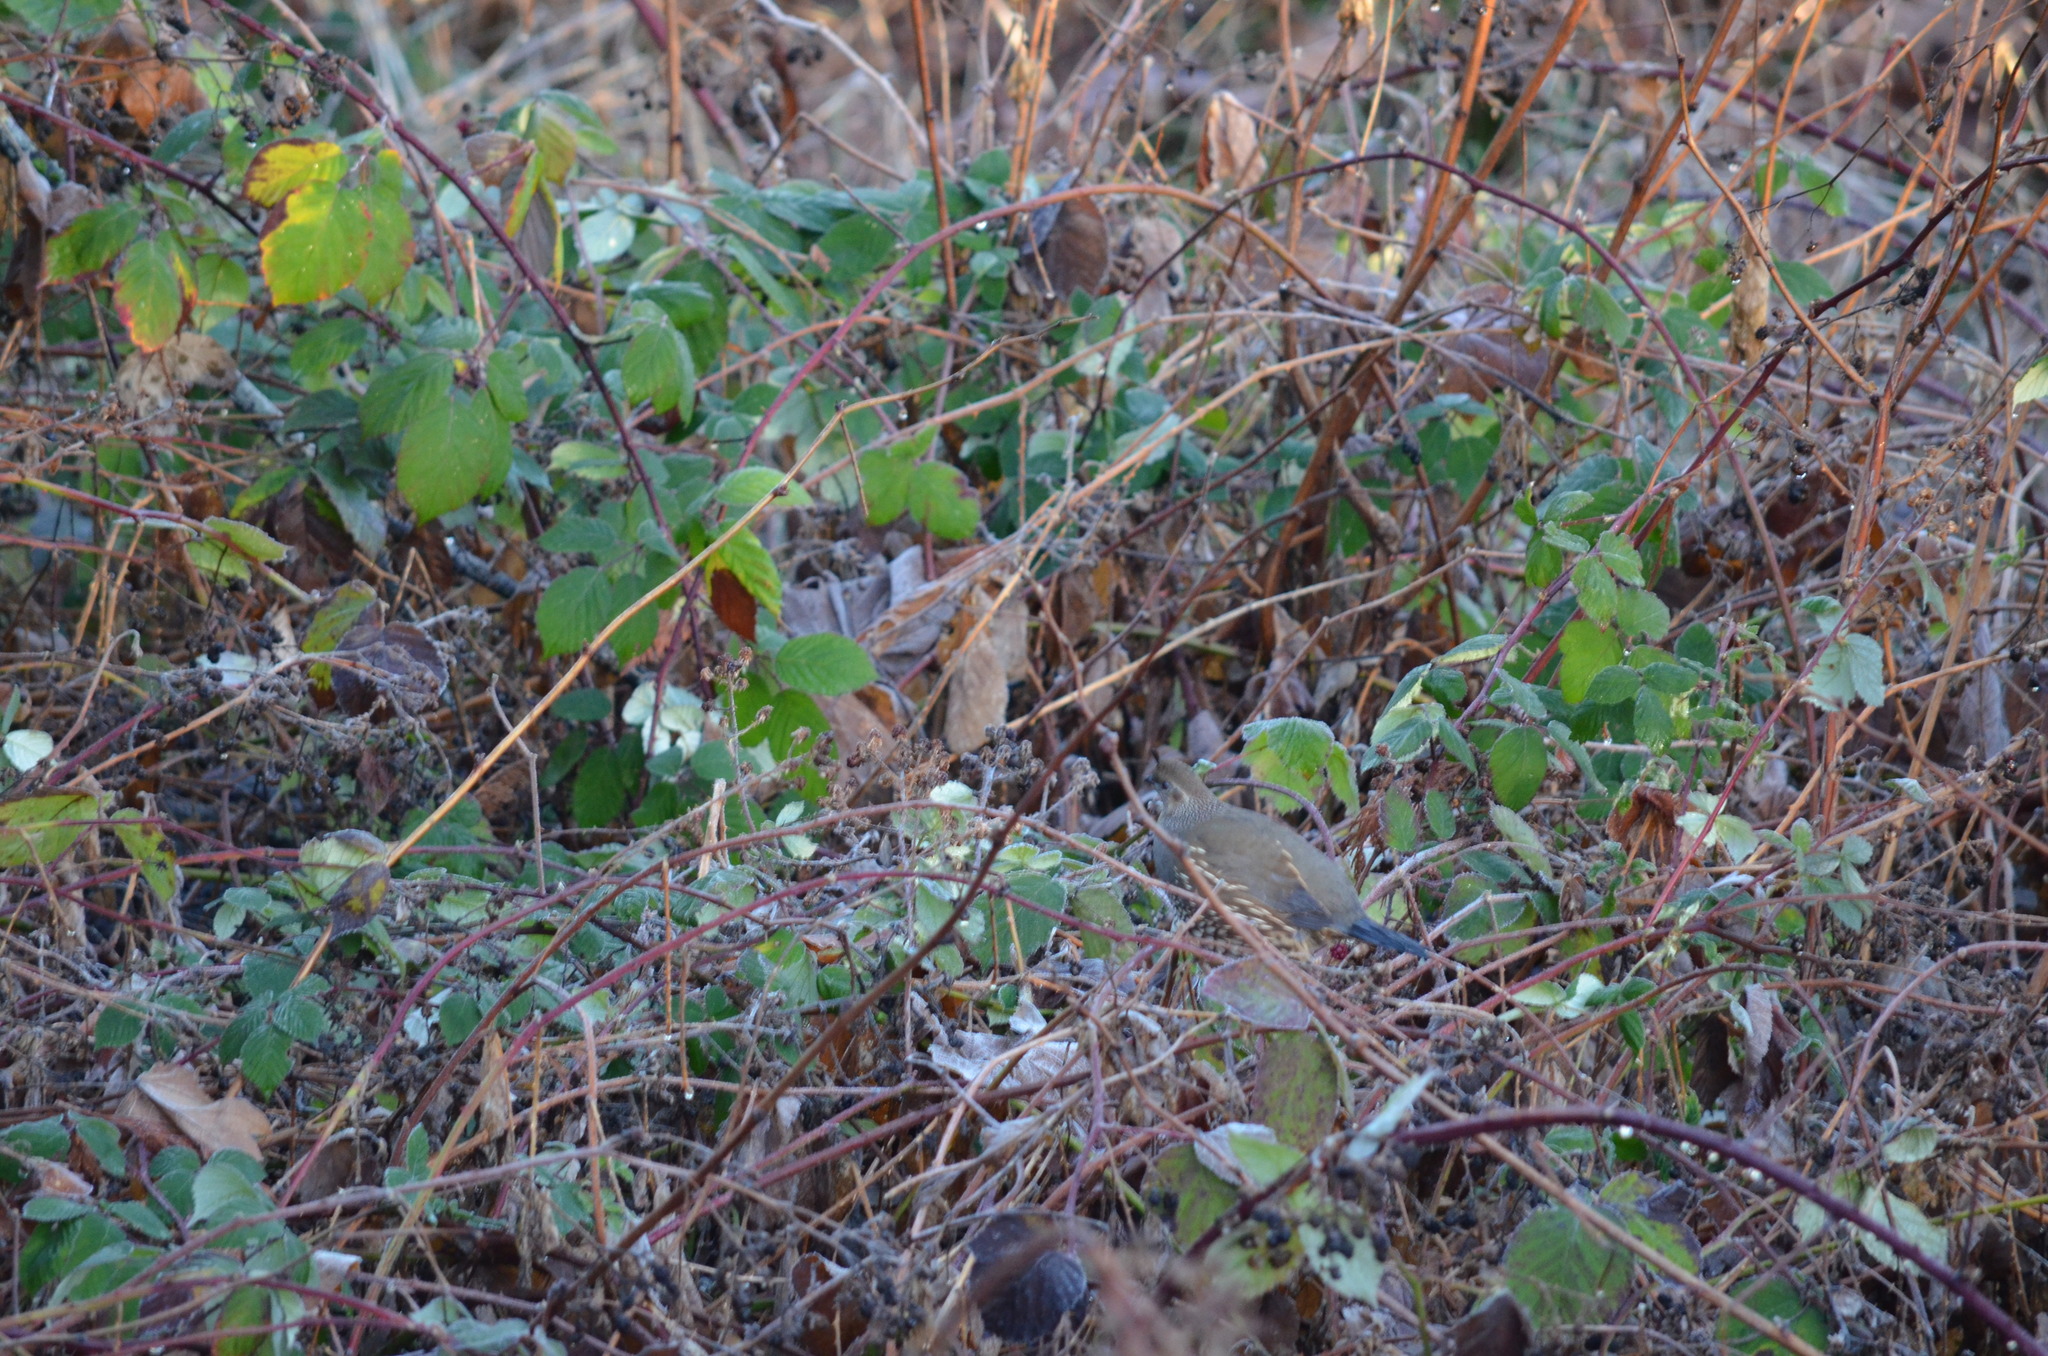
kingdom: Animalia
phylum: Chordata
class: Aves
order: Galliformes
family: Odontophoridae
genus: Callipepla
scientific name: Callipepla californica
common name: California quail
